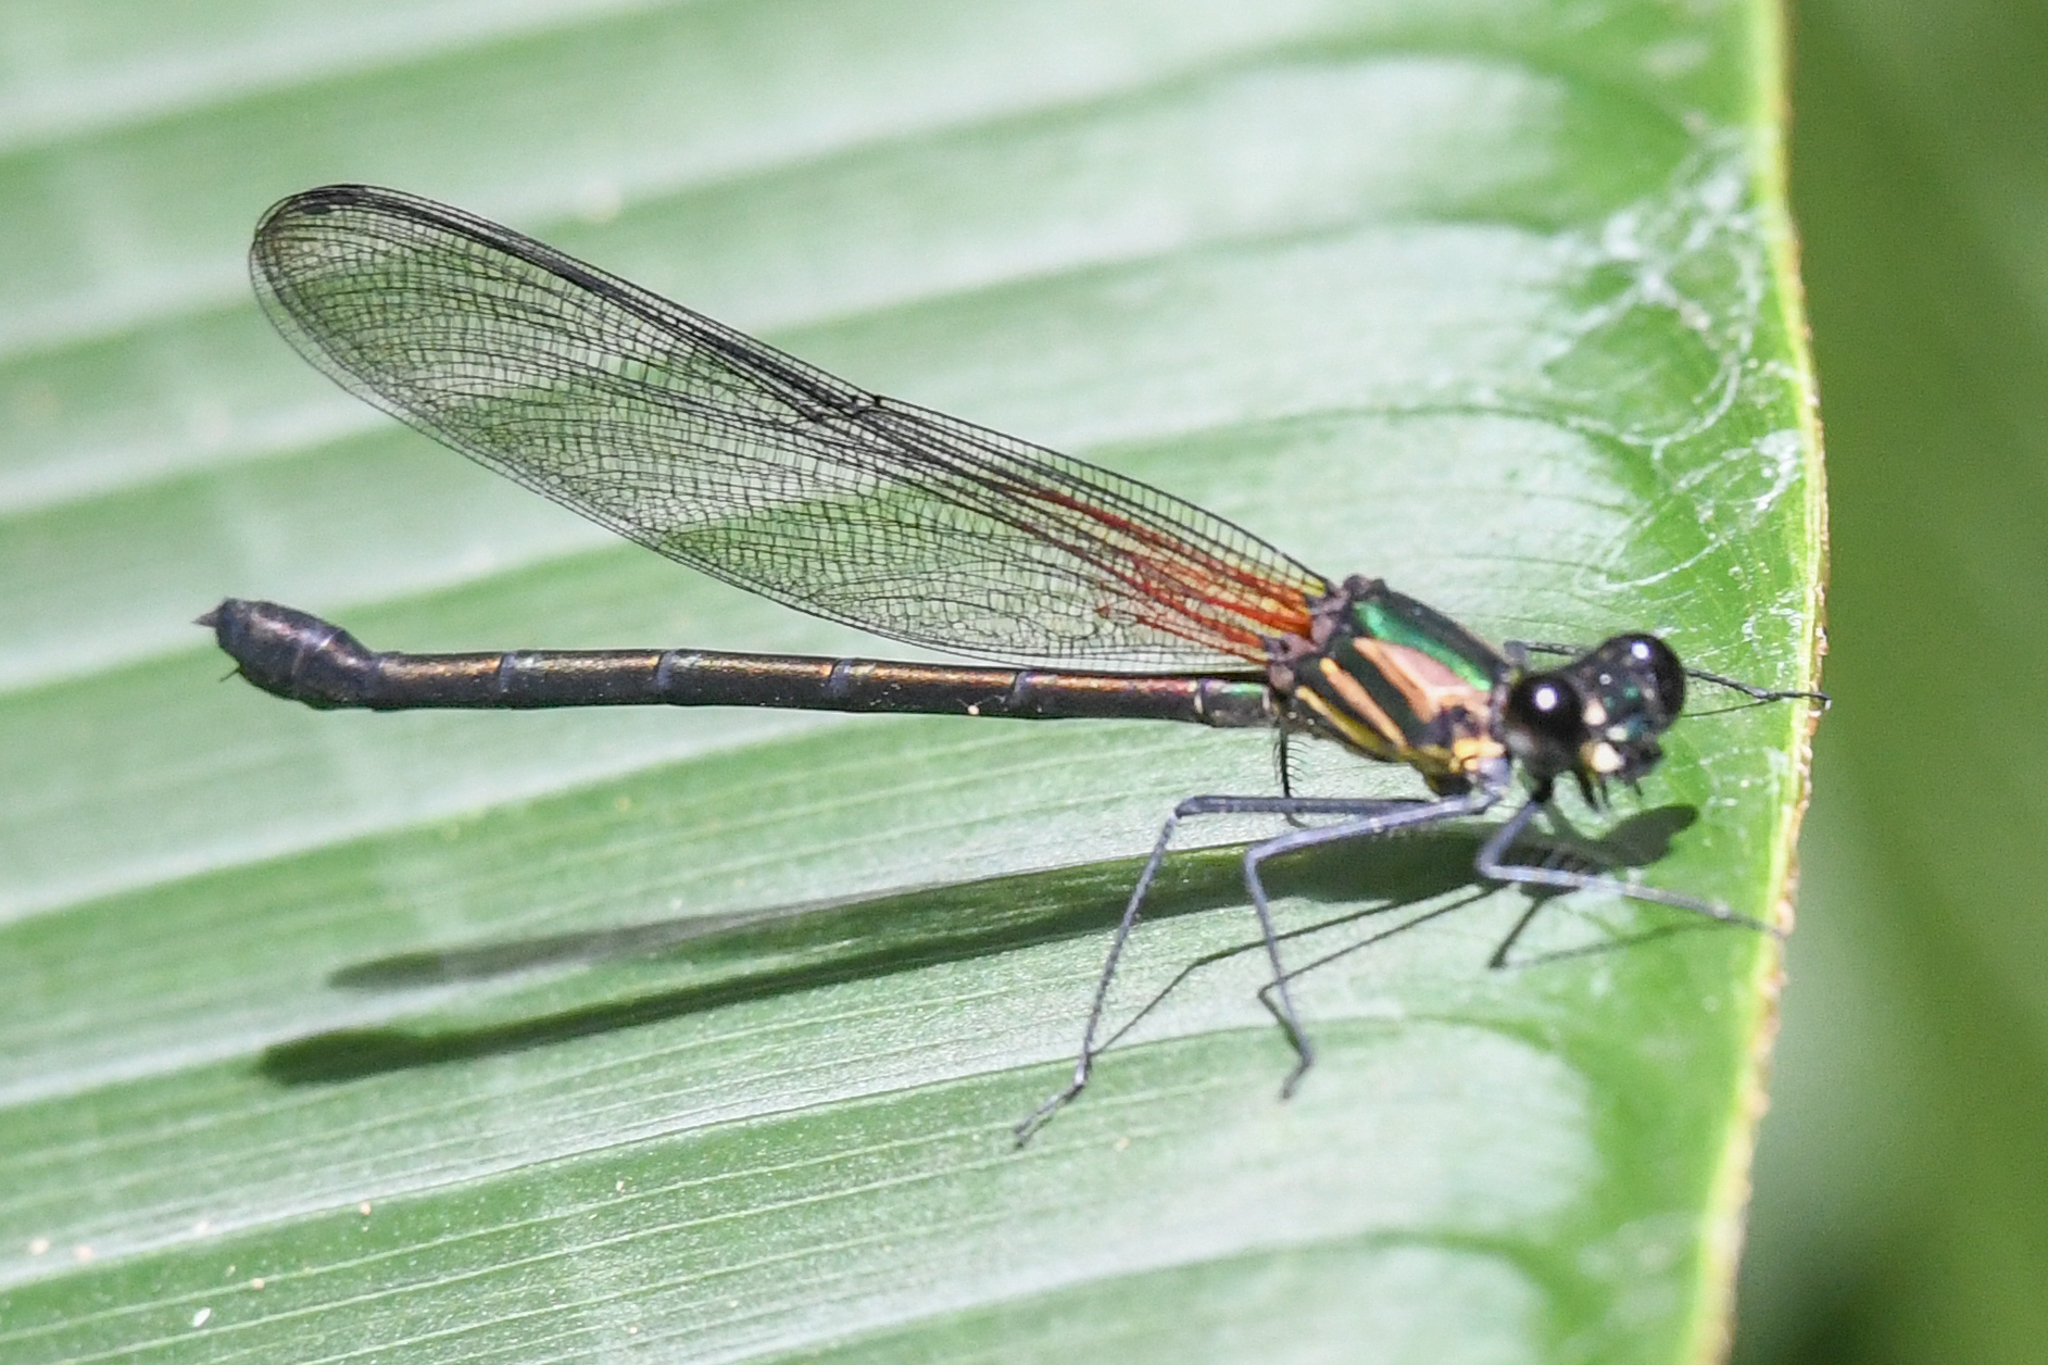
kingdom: Animalia
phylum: Arthropoda
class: Insecta
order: Odonata
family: Calopterygidae
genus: Hetaerina
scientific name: Hetaerina capitalis
